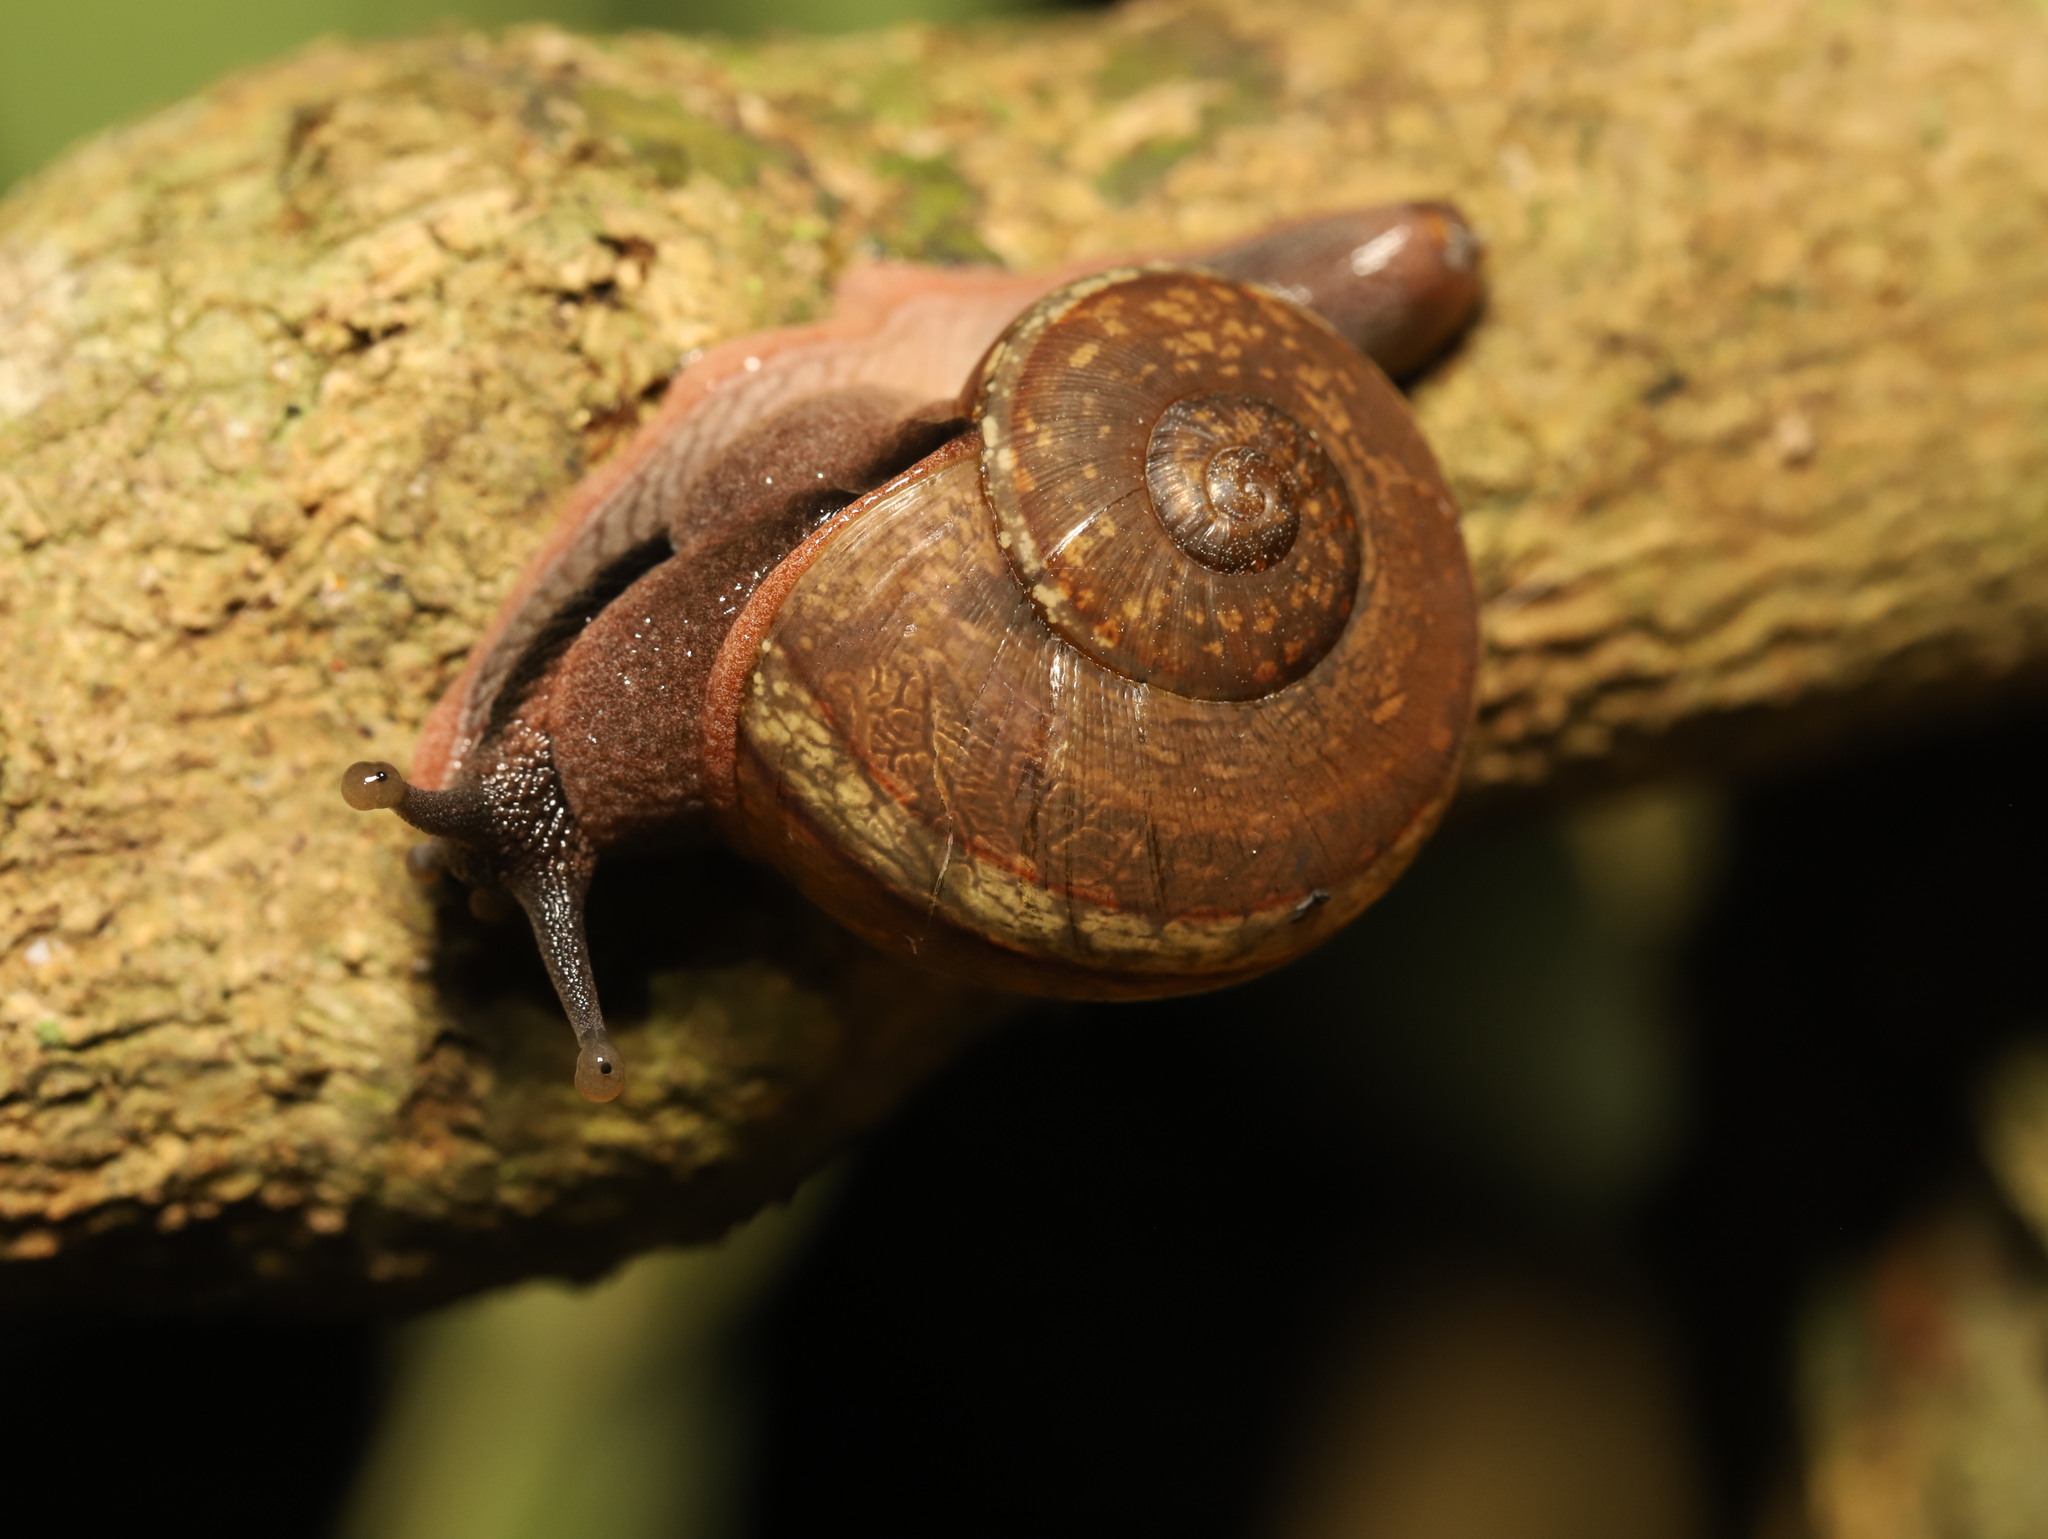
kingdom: Animalia
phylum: Mollusca
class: Gastropoda
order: Stylommatophora
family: Ariophantidae
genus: Ariophanta
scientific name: Ariophanta exilis
